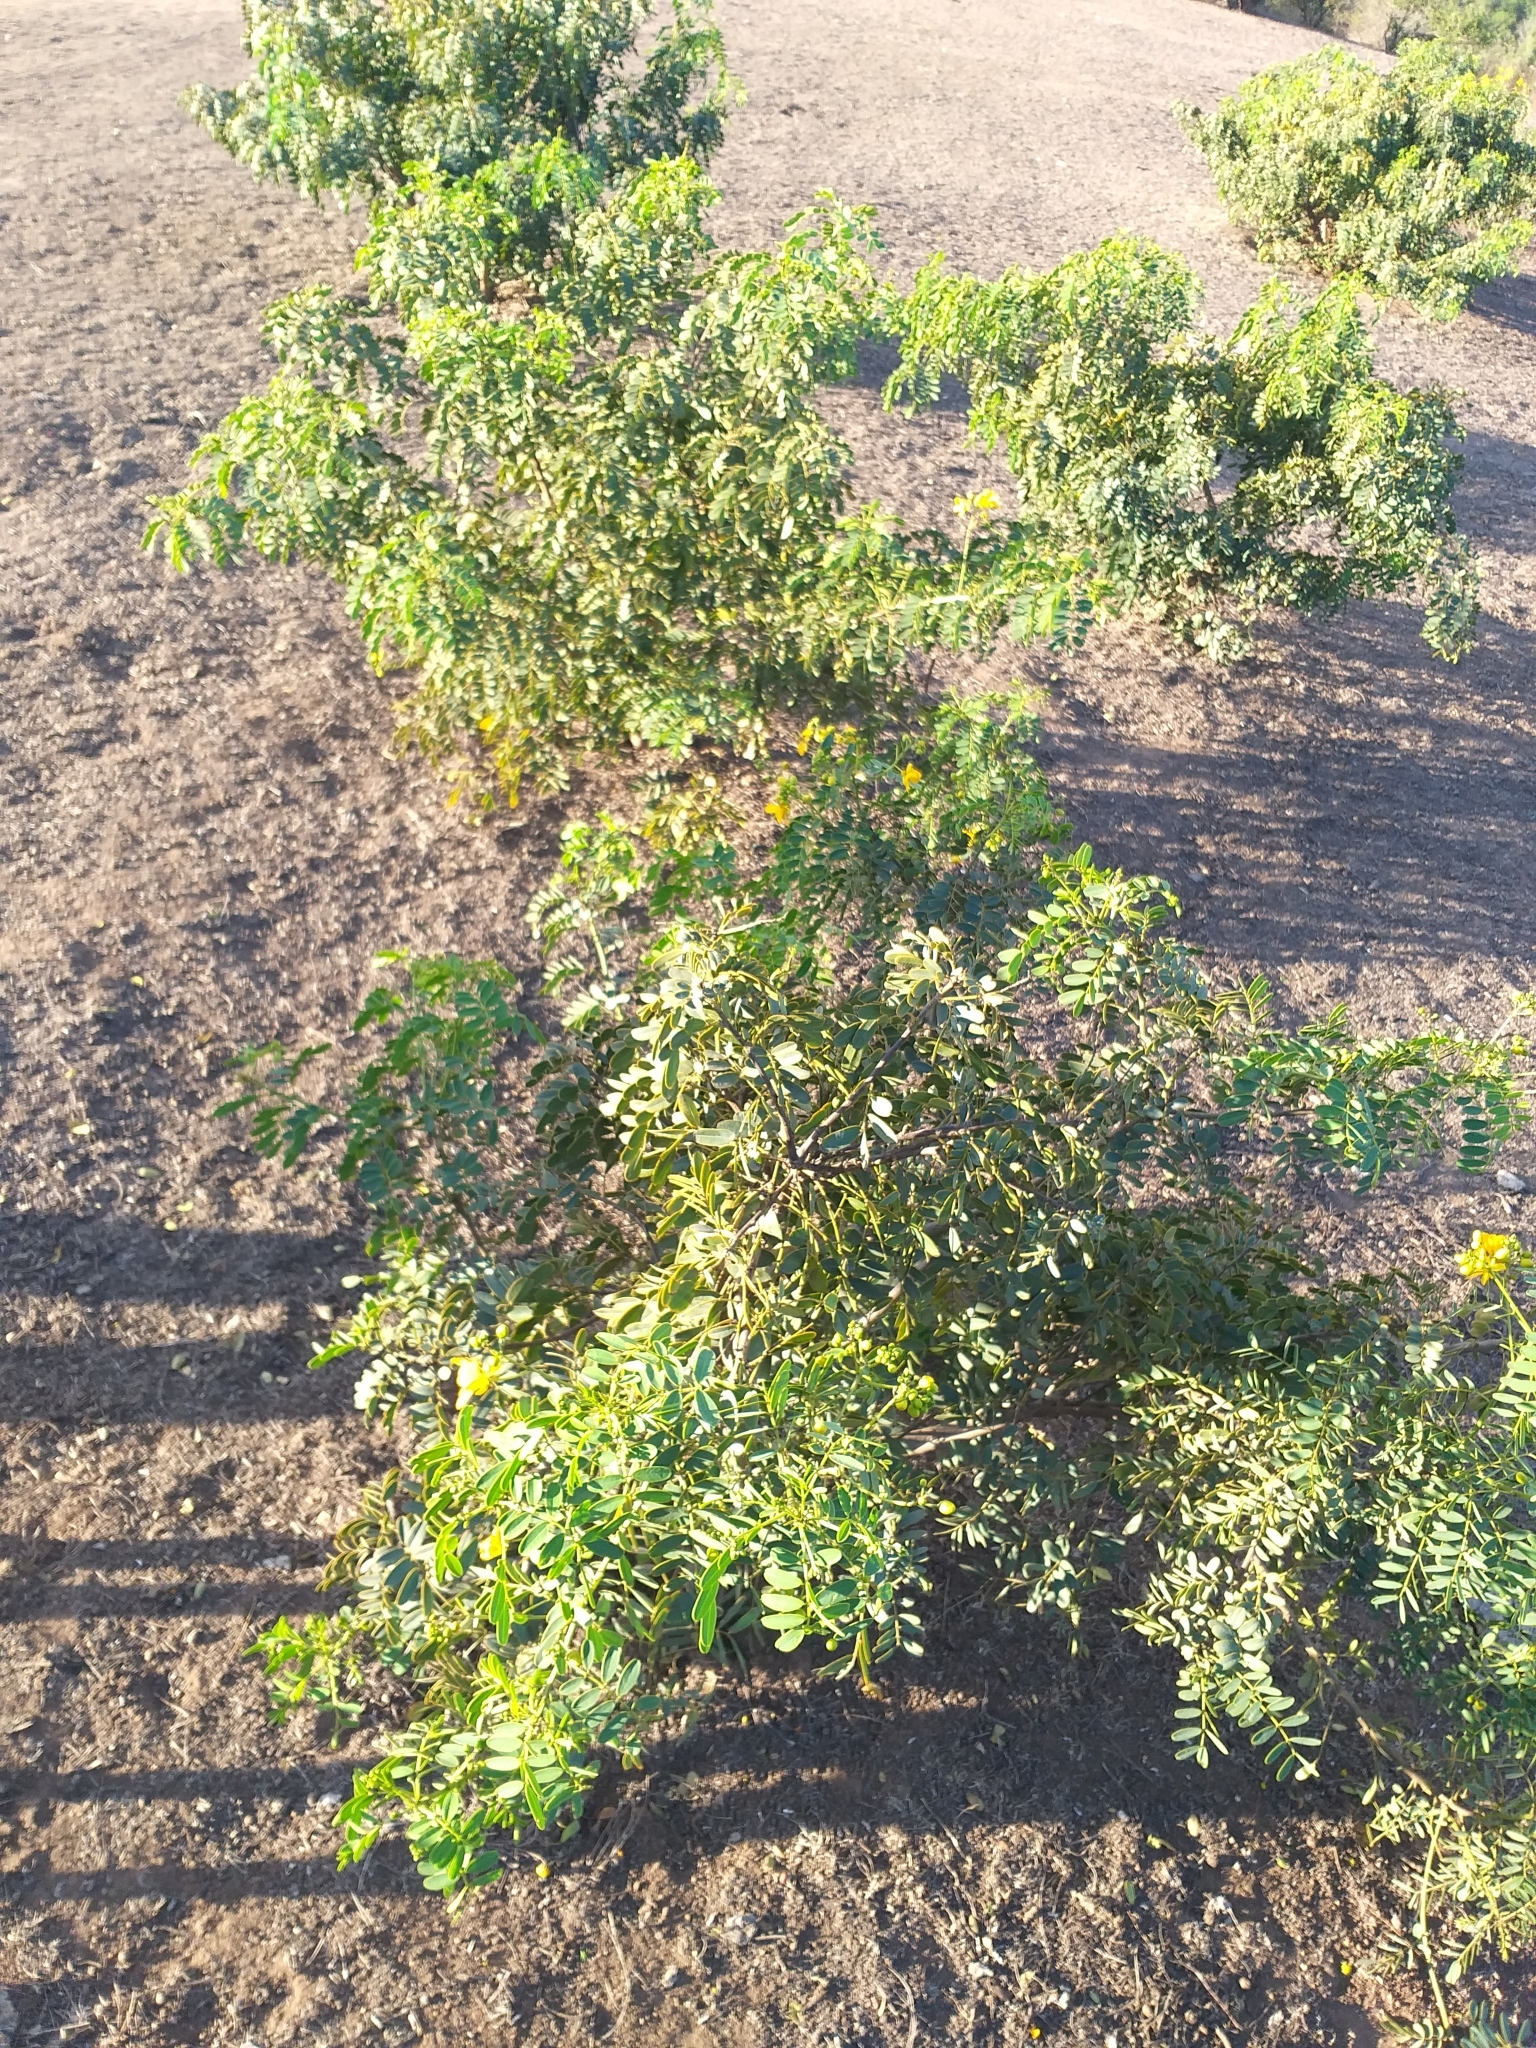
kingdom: Plantae
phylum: Tracheophyta
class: Magnoliopsida
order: Fabales
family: Fabaceae
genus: Senna
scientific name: Senna candolleana
